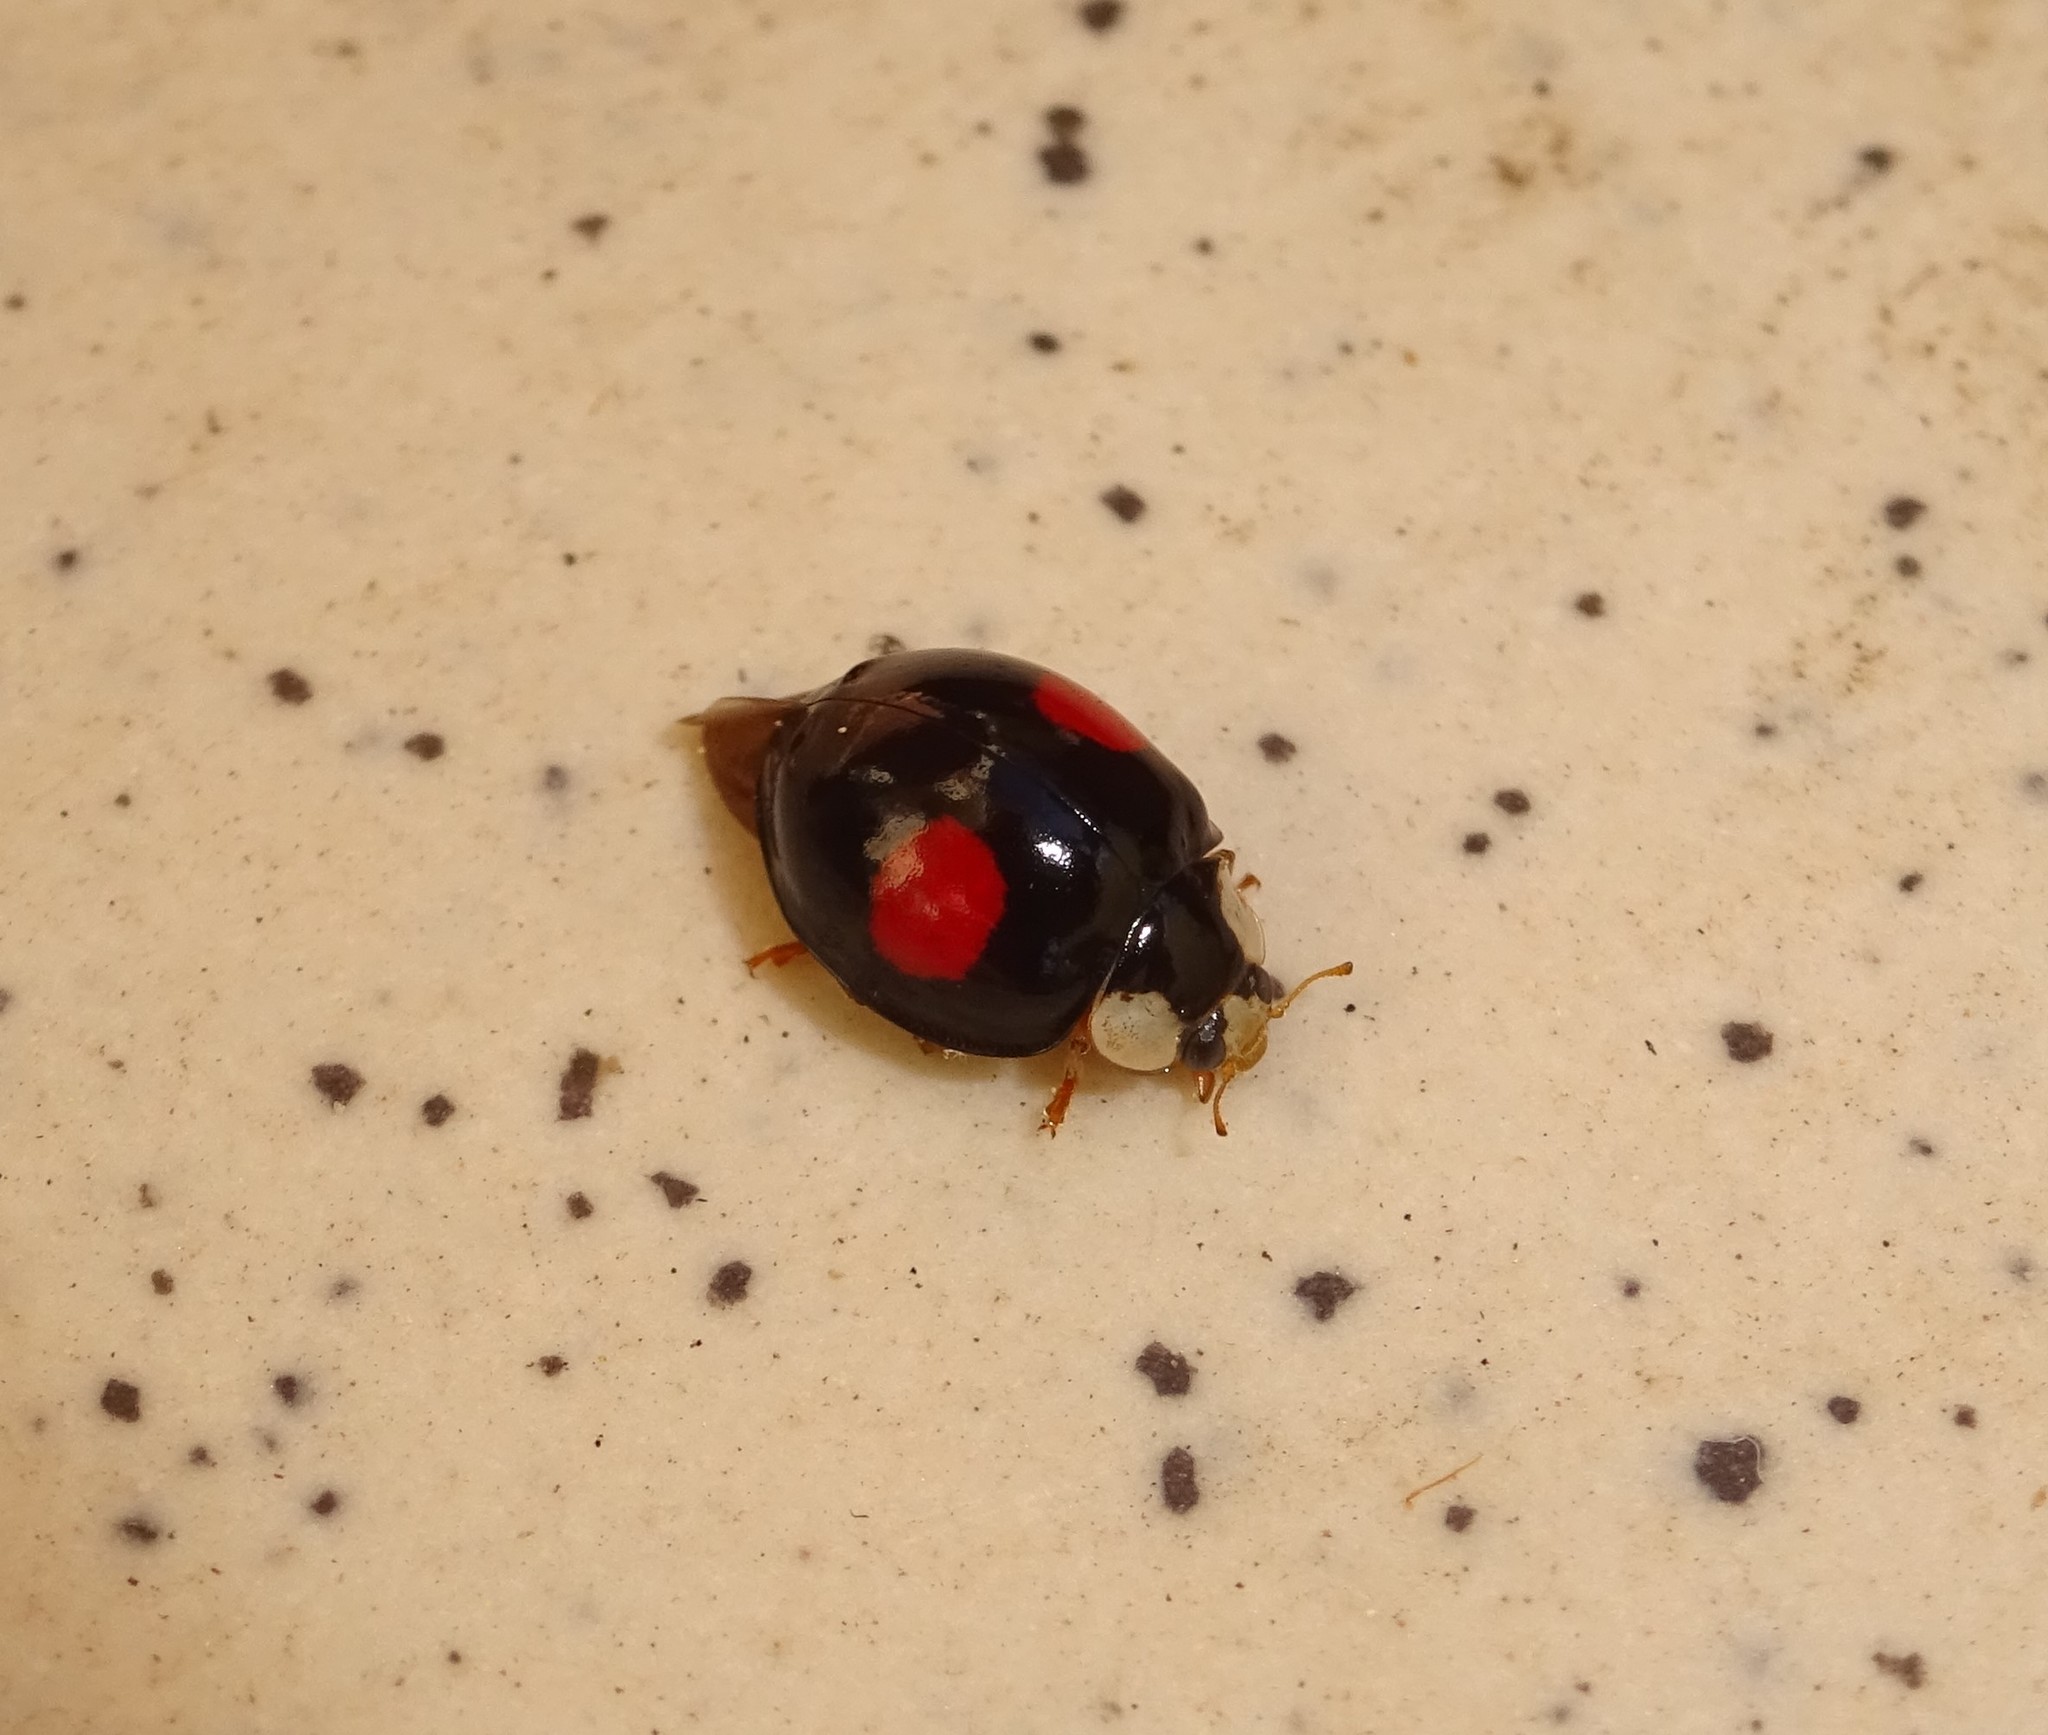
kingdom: Animalia
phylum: Arthropoda
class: Insecta
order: Coleoptera
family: Coccinellidae
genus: Harmonia
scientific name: Harmonia axyridis
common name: Harlequin ladybird
